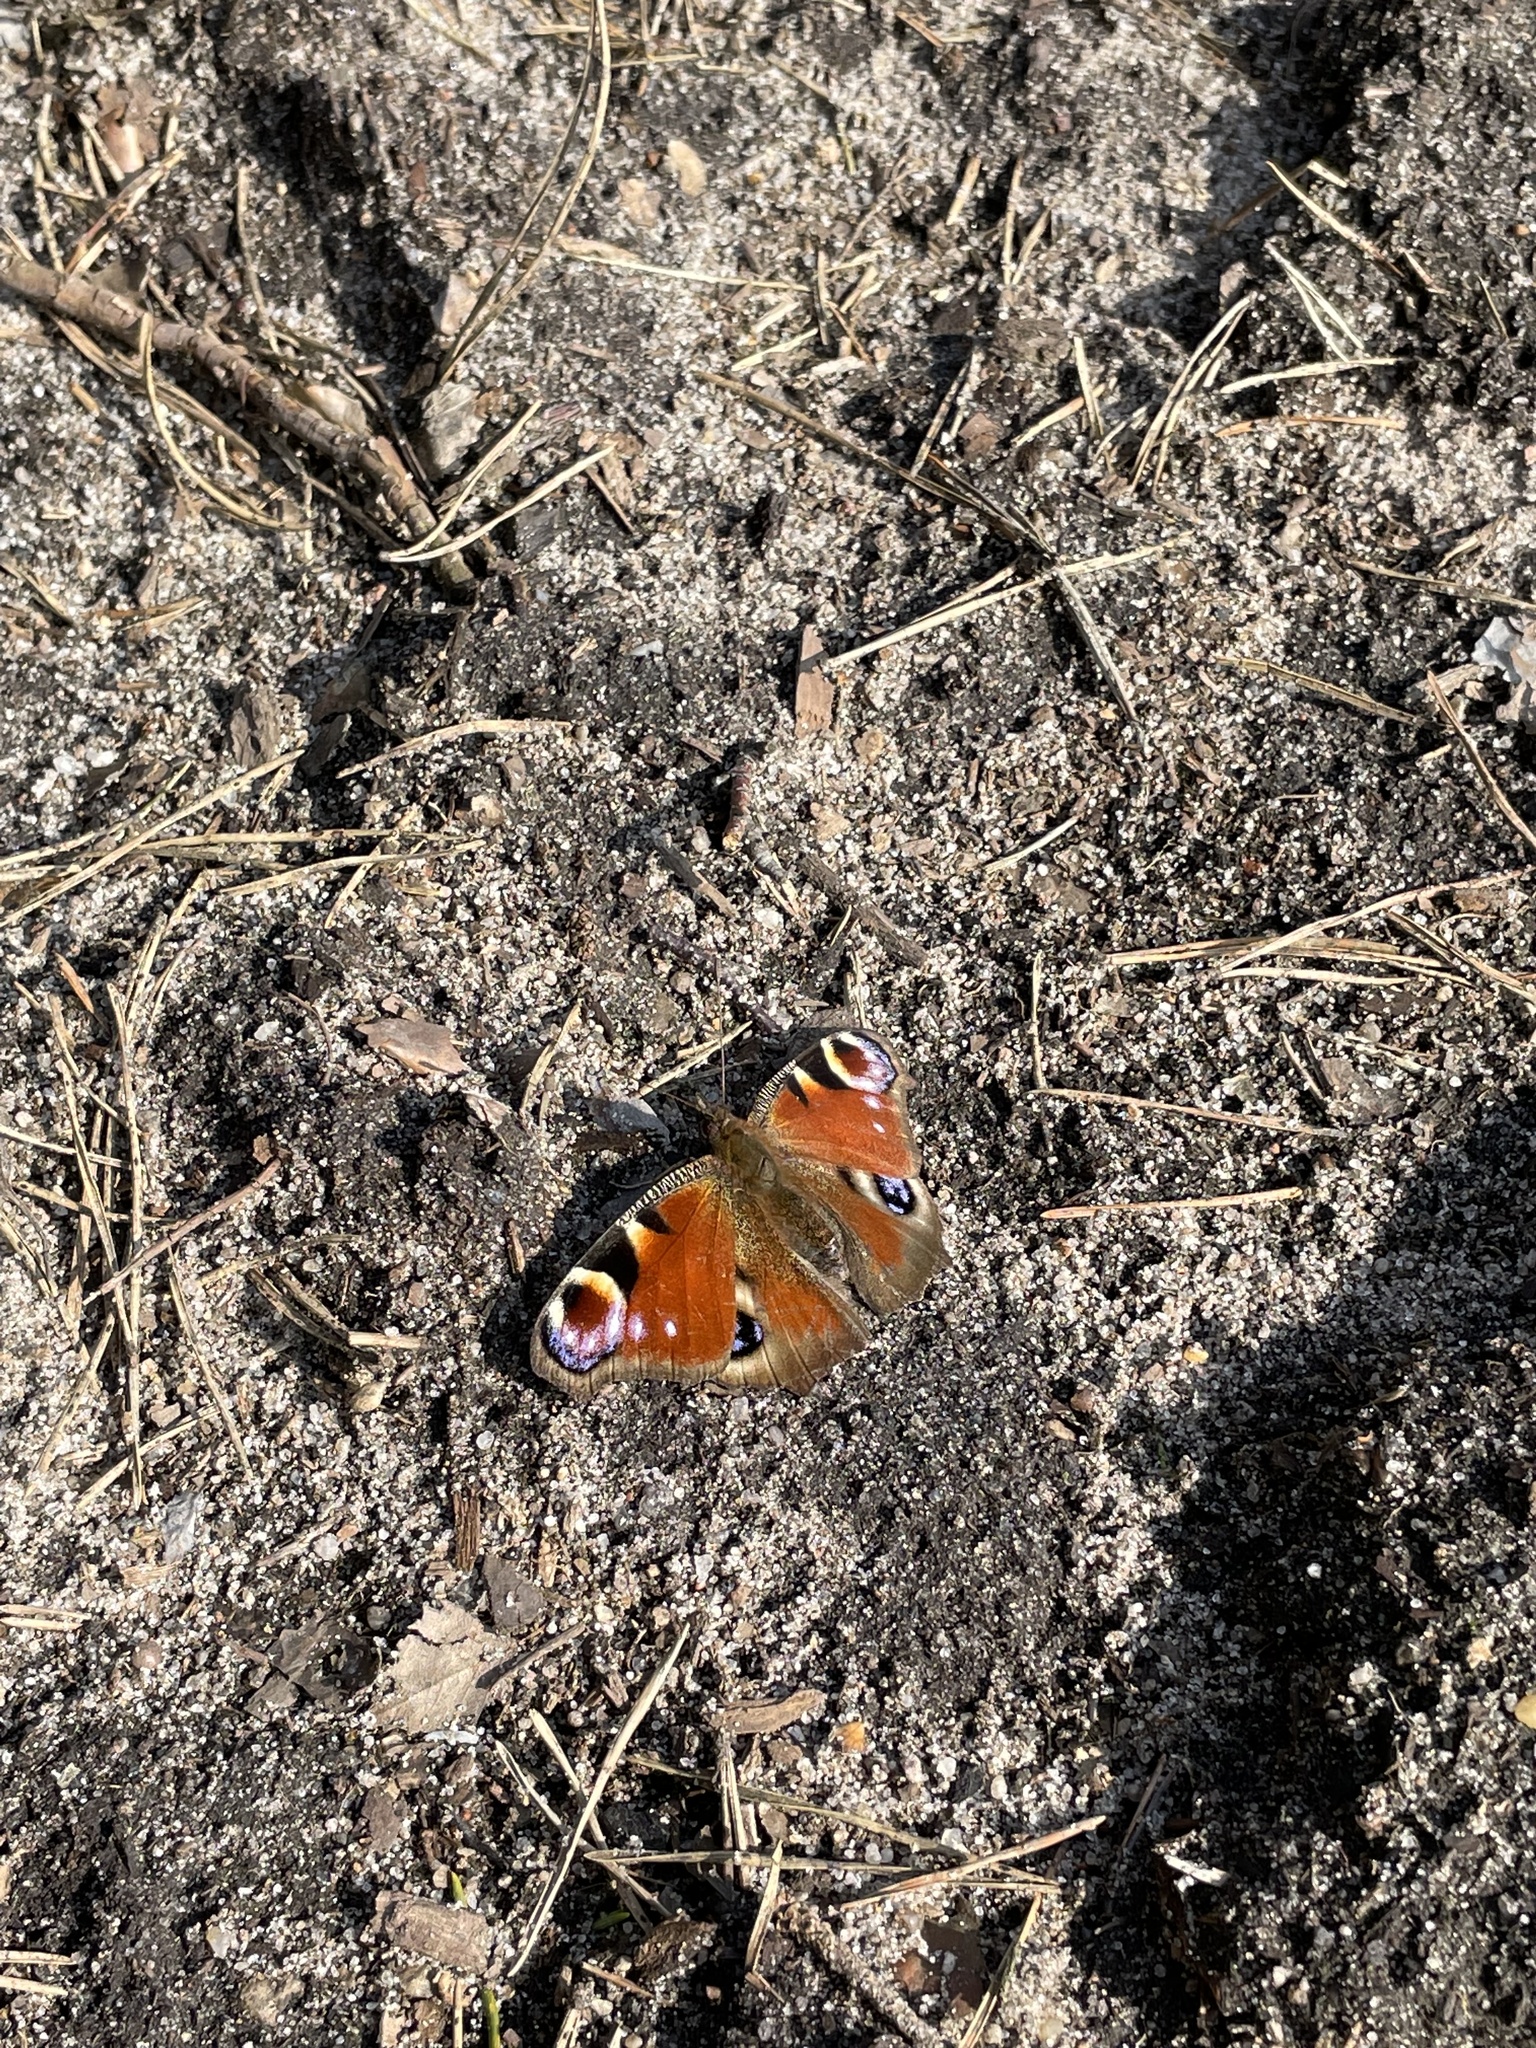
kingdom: Animalia
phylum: Arthropoda
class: Insecta
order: Lepidoptera
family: Nymphalidae
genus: Aglais
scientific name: Aglais io
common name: Peacock
